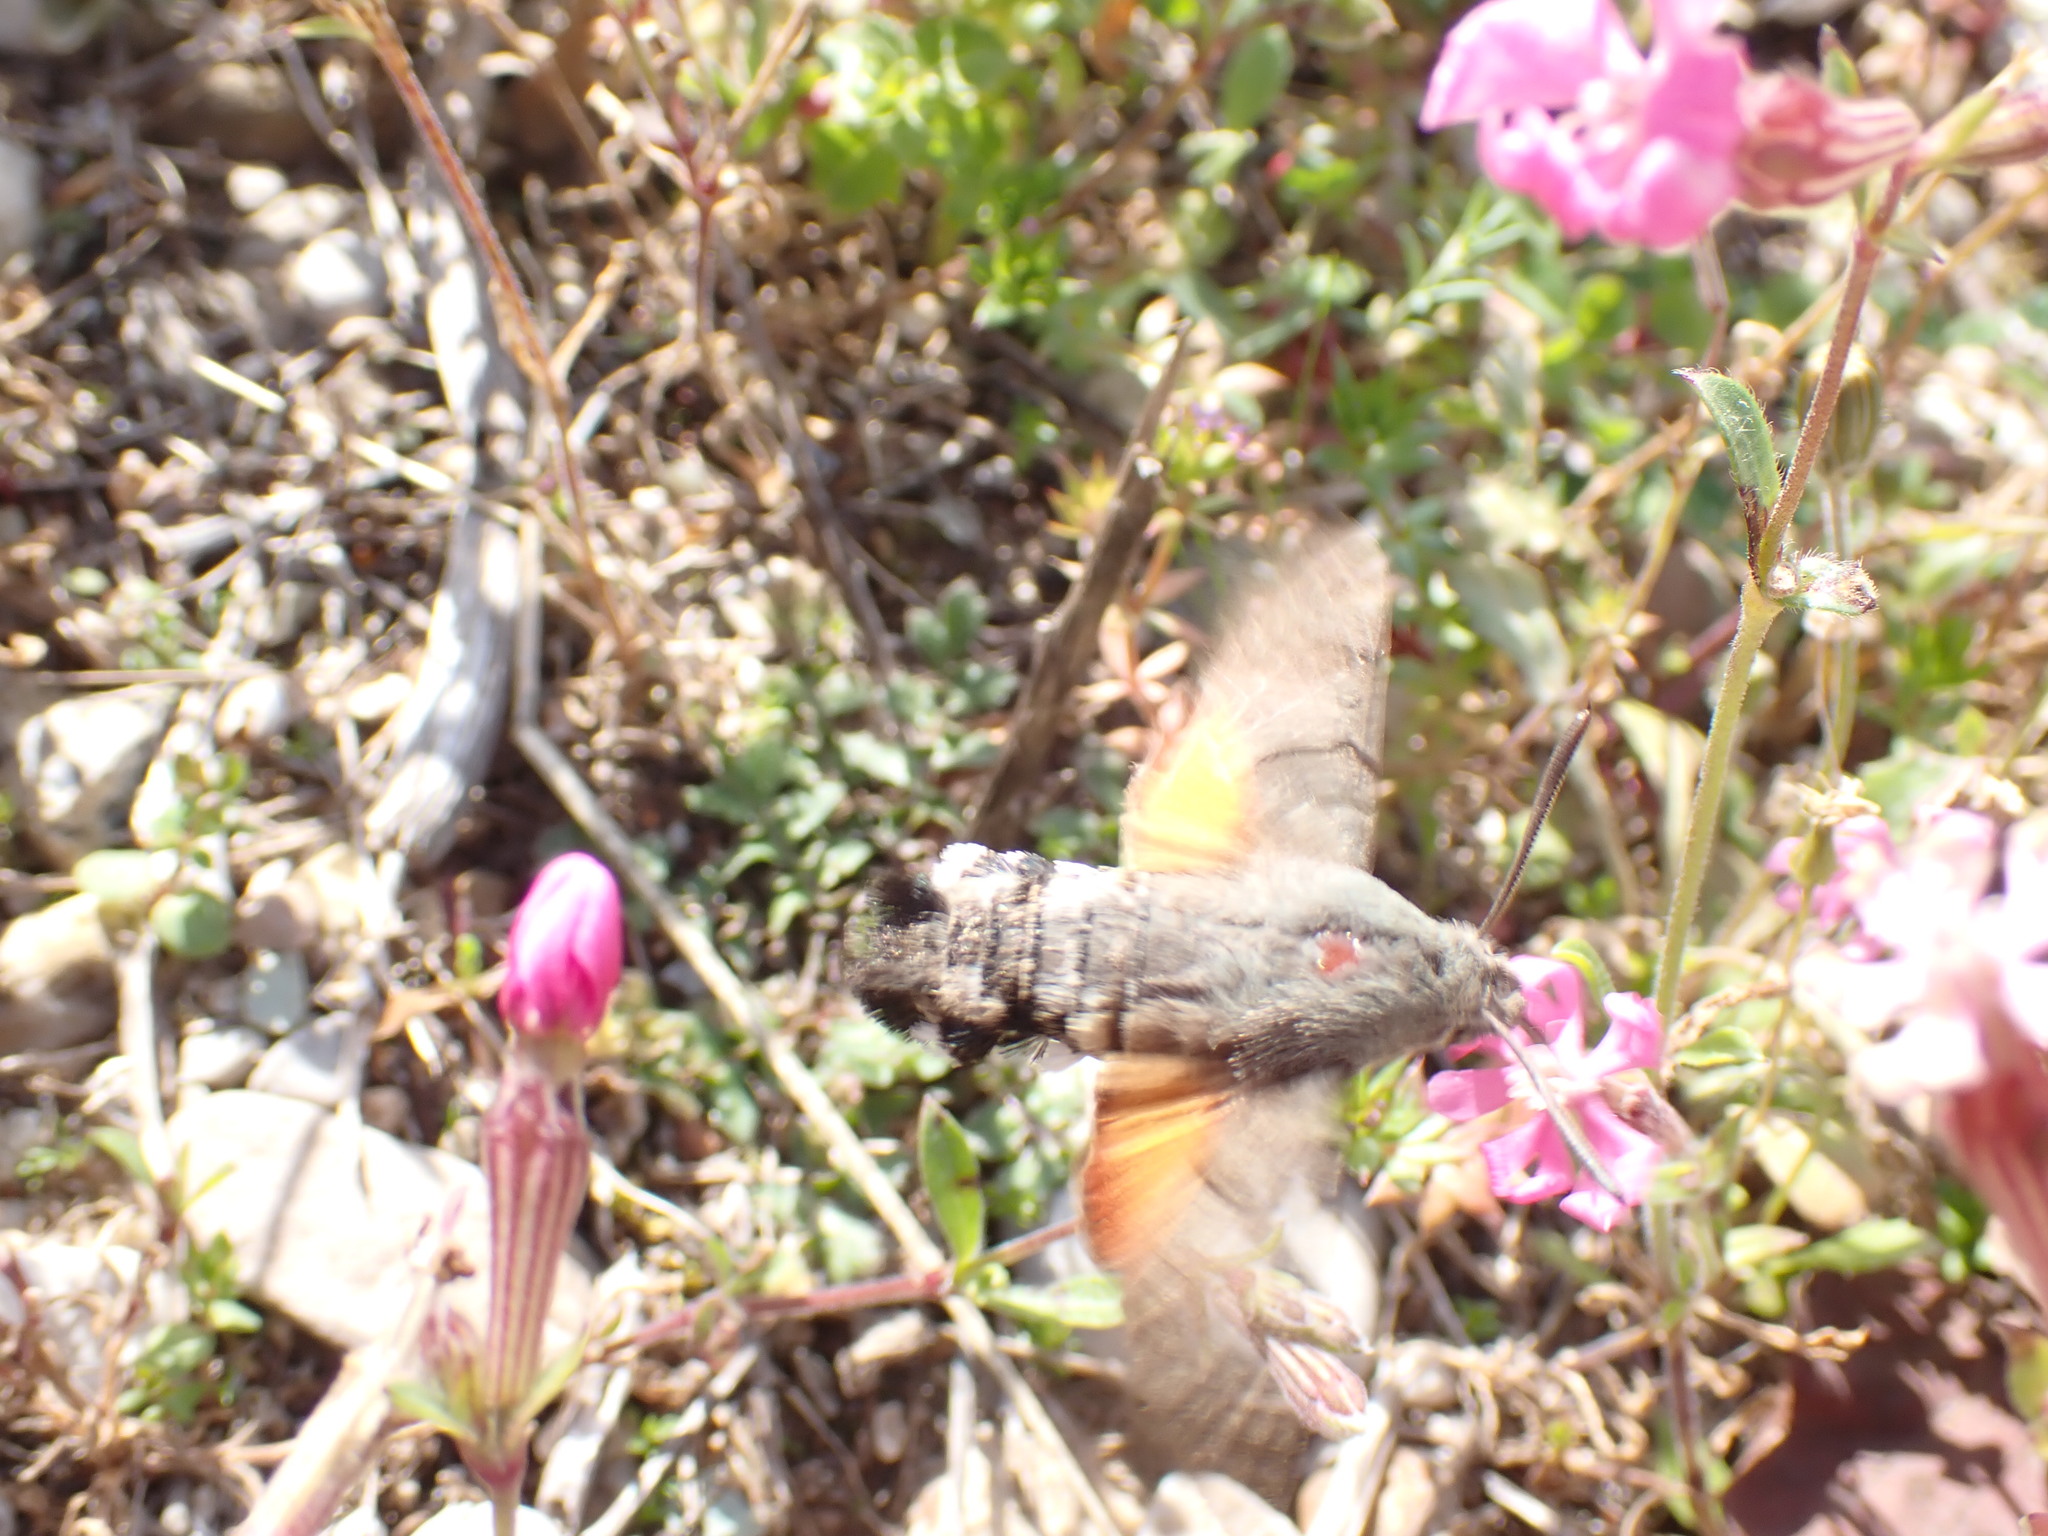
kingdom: Animalia
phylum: Arthropoda
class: Insecta
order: Lepidoptera
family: Sphingidae
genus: Macroglossum
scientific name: Macroglossum stellatarum
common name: Humming-bird hawk-moth
